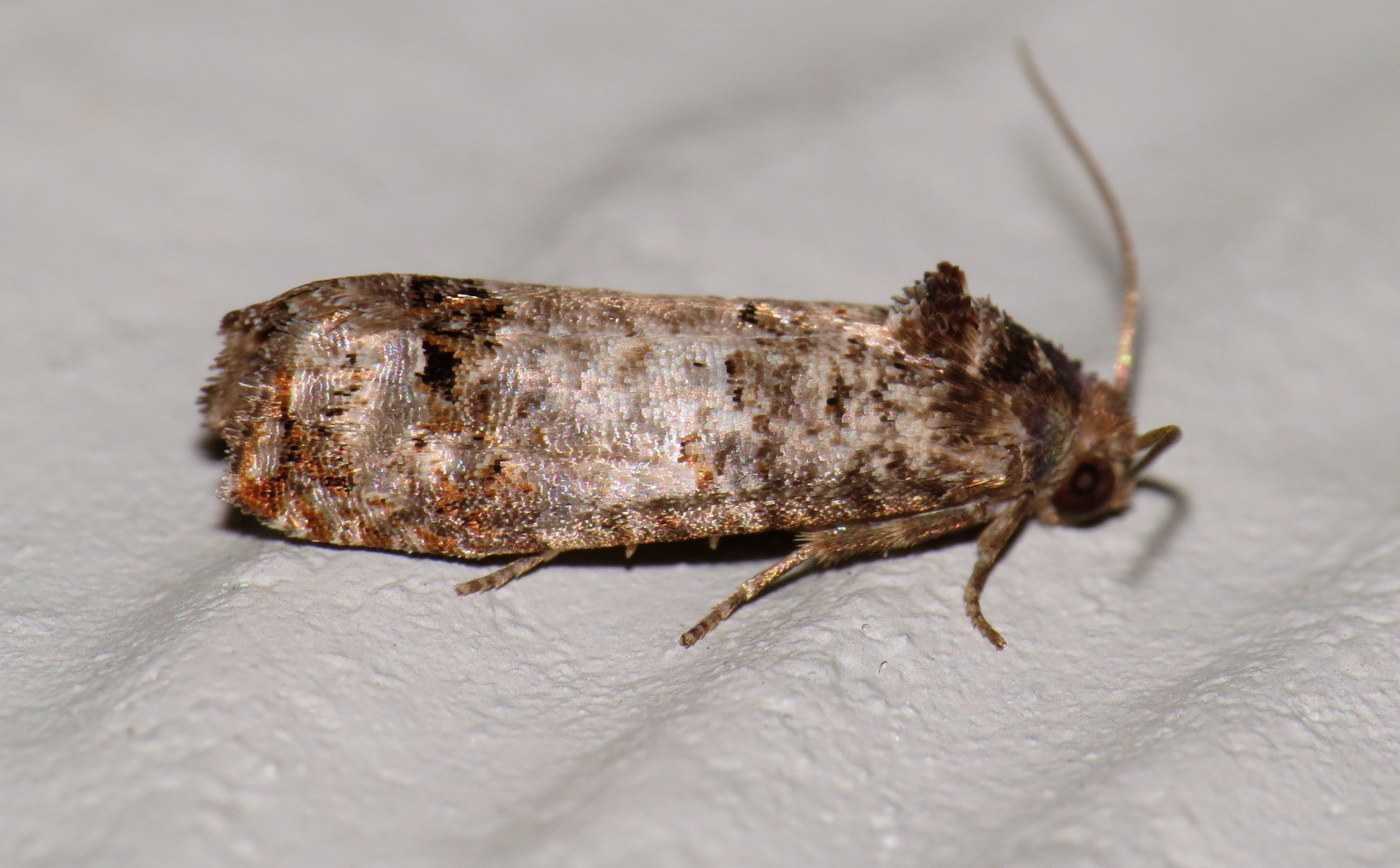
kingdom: Animalia
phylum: Arthropoda
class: Insecta
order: Lepidoptera
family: Tortricidae
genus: Epiblema
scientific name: Epiblema carolinana
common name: Gray-blotched epiblema moth
